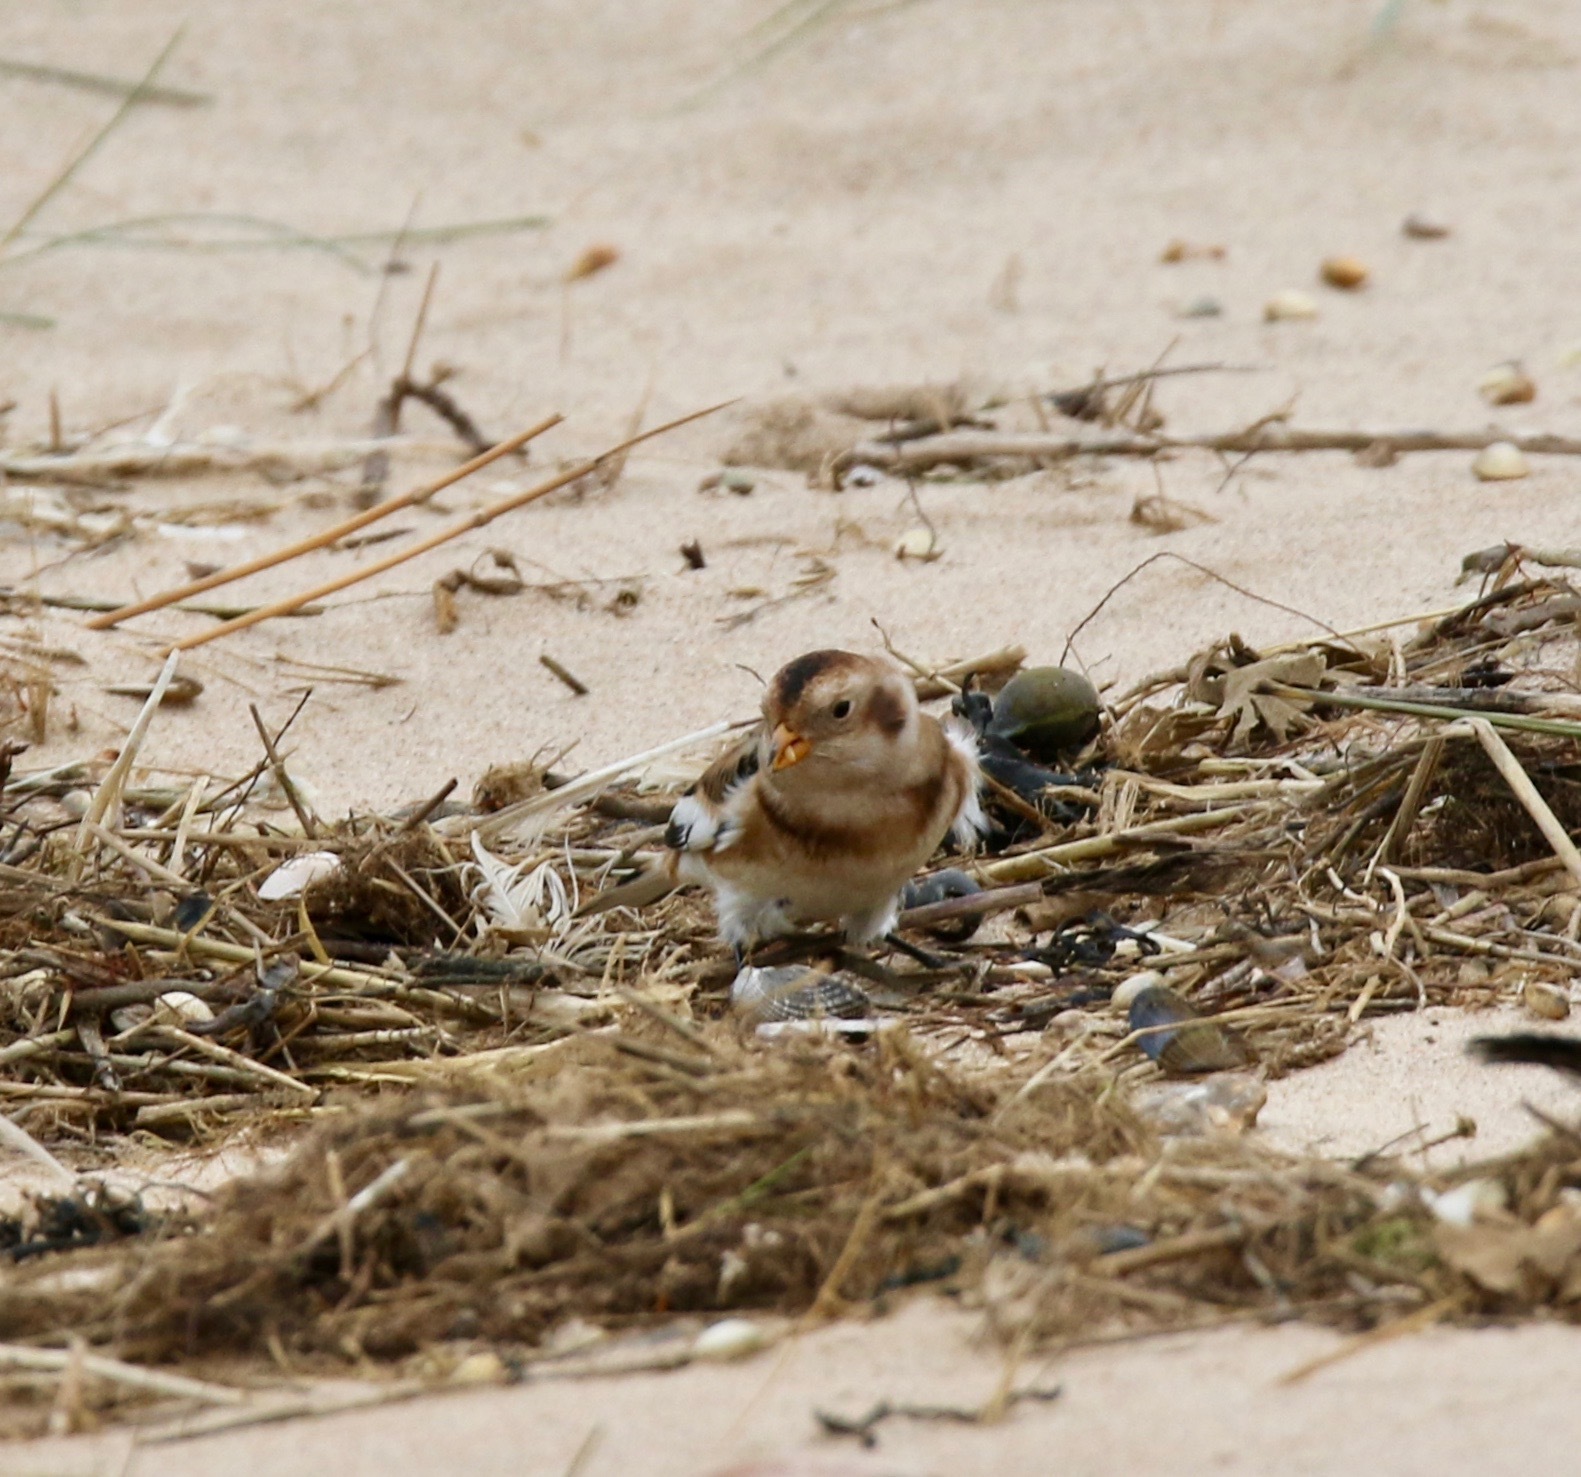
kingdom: Animalia
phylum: Chordata
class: Aves
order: Passeriformes
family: Calcariidae
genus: Plectrophenax
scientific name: Plectrophenax nivalis
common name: Snow bunting
